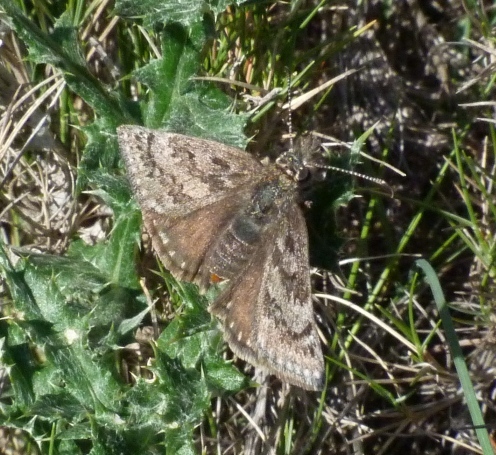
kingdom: Animalia
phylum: Arthropoda
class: Insecta
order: Lepidoptera
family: Hesperiidae
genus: Erynnis
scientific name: Erynnis tages
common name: Dingy skipper
